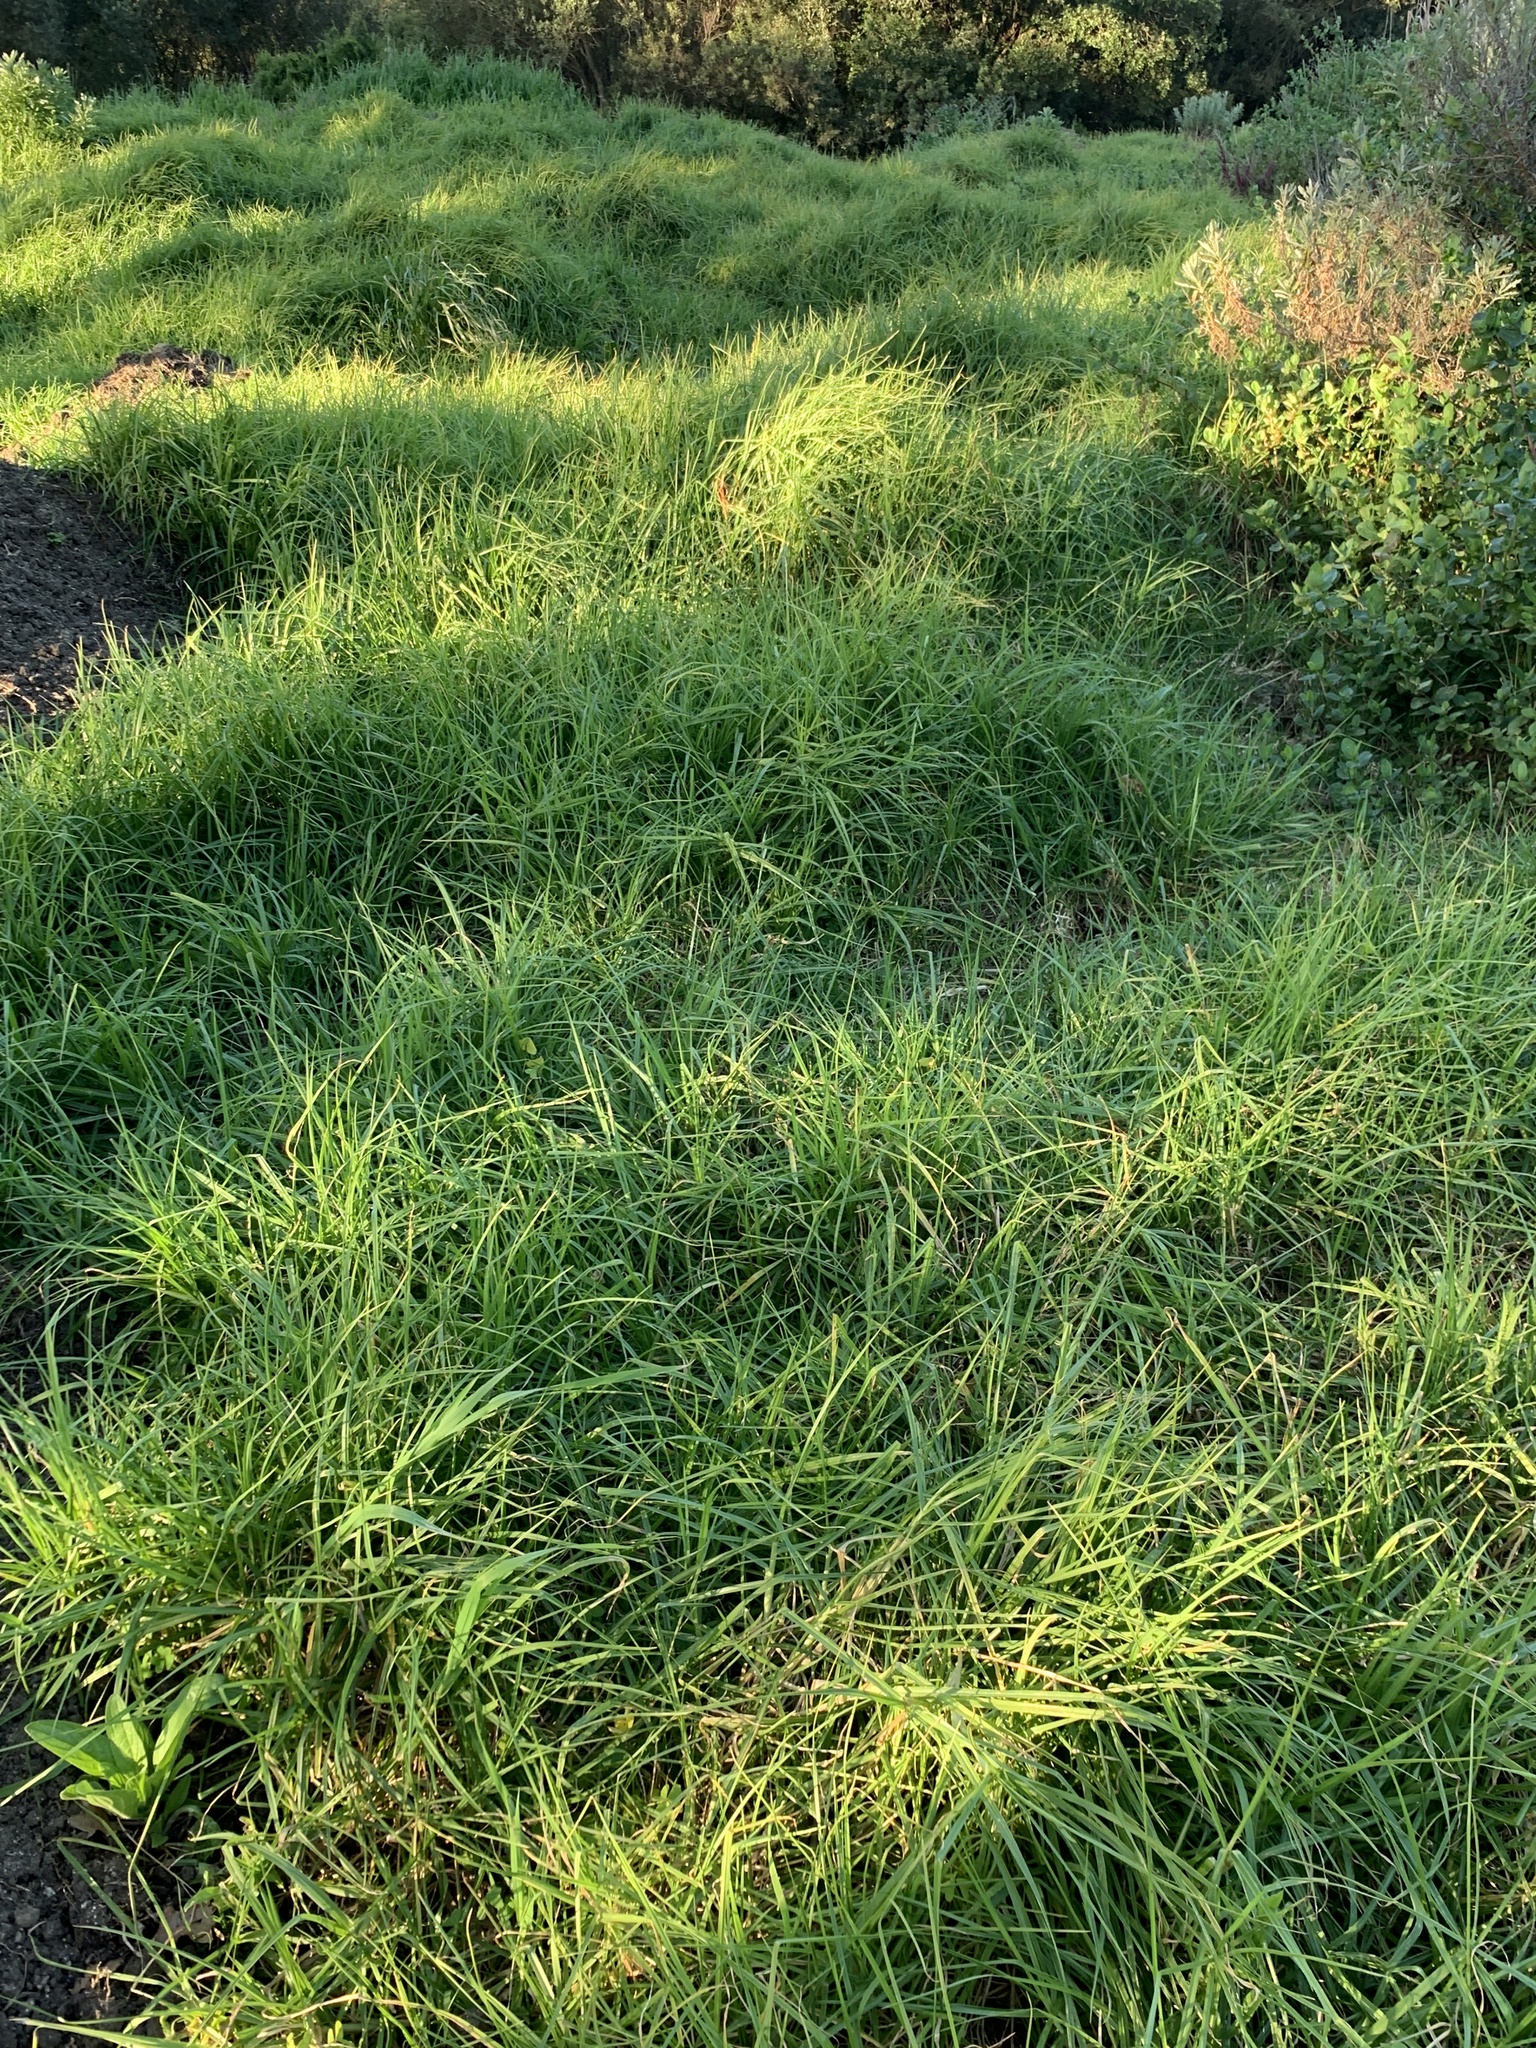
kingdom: Plantae
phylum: Tracheophyta
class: Liliopsida
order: Poales
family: Poaceae
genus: Cenchrus
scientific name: Cenchrus clandestinus
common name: Kikuyugrass
